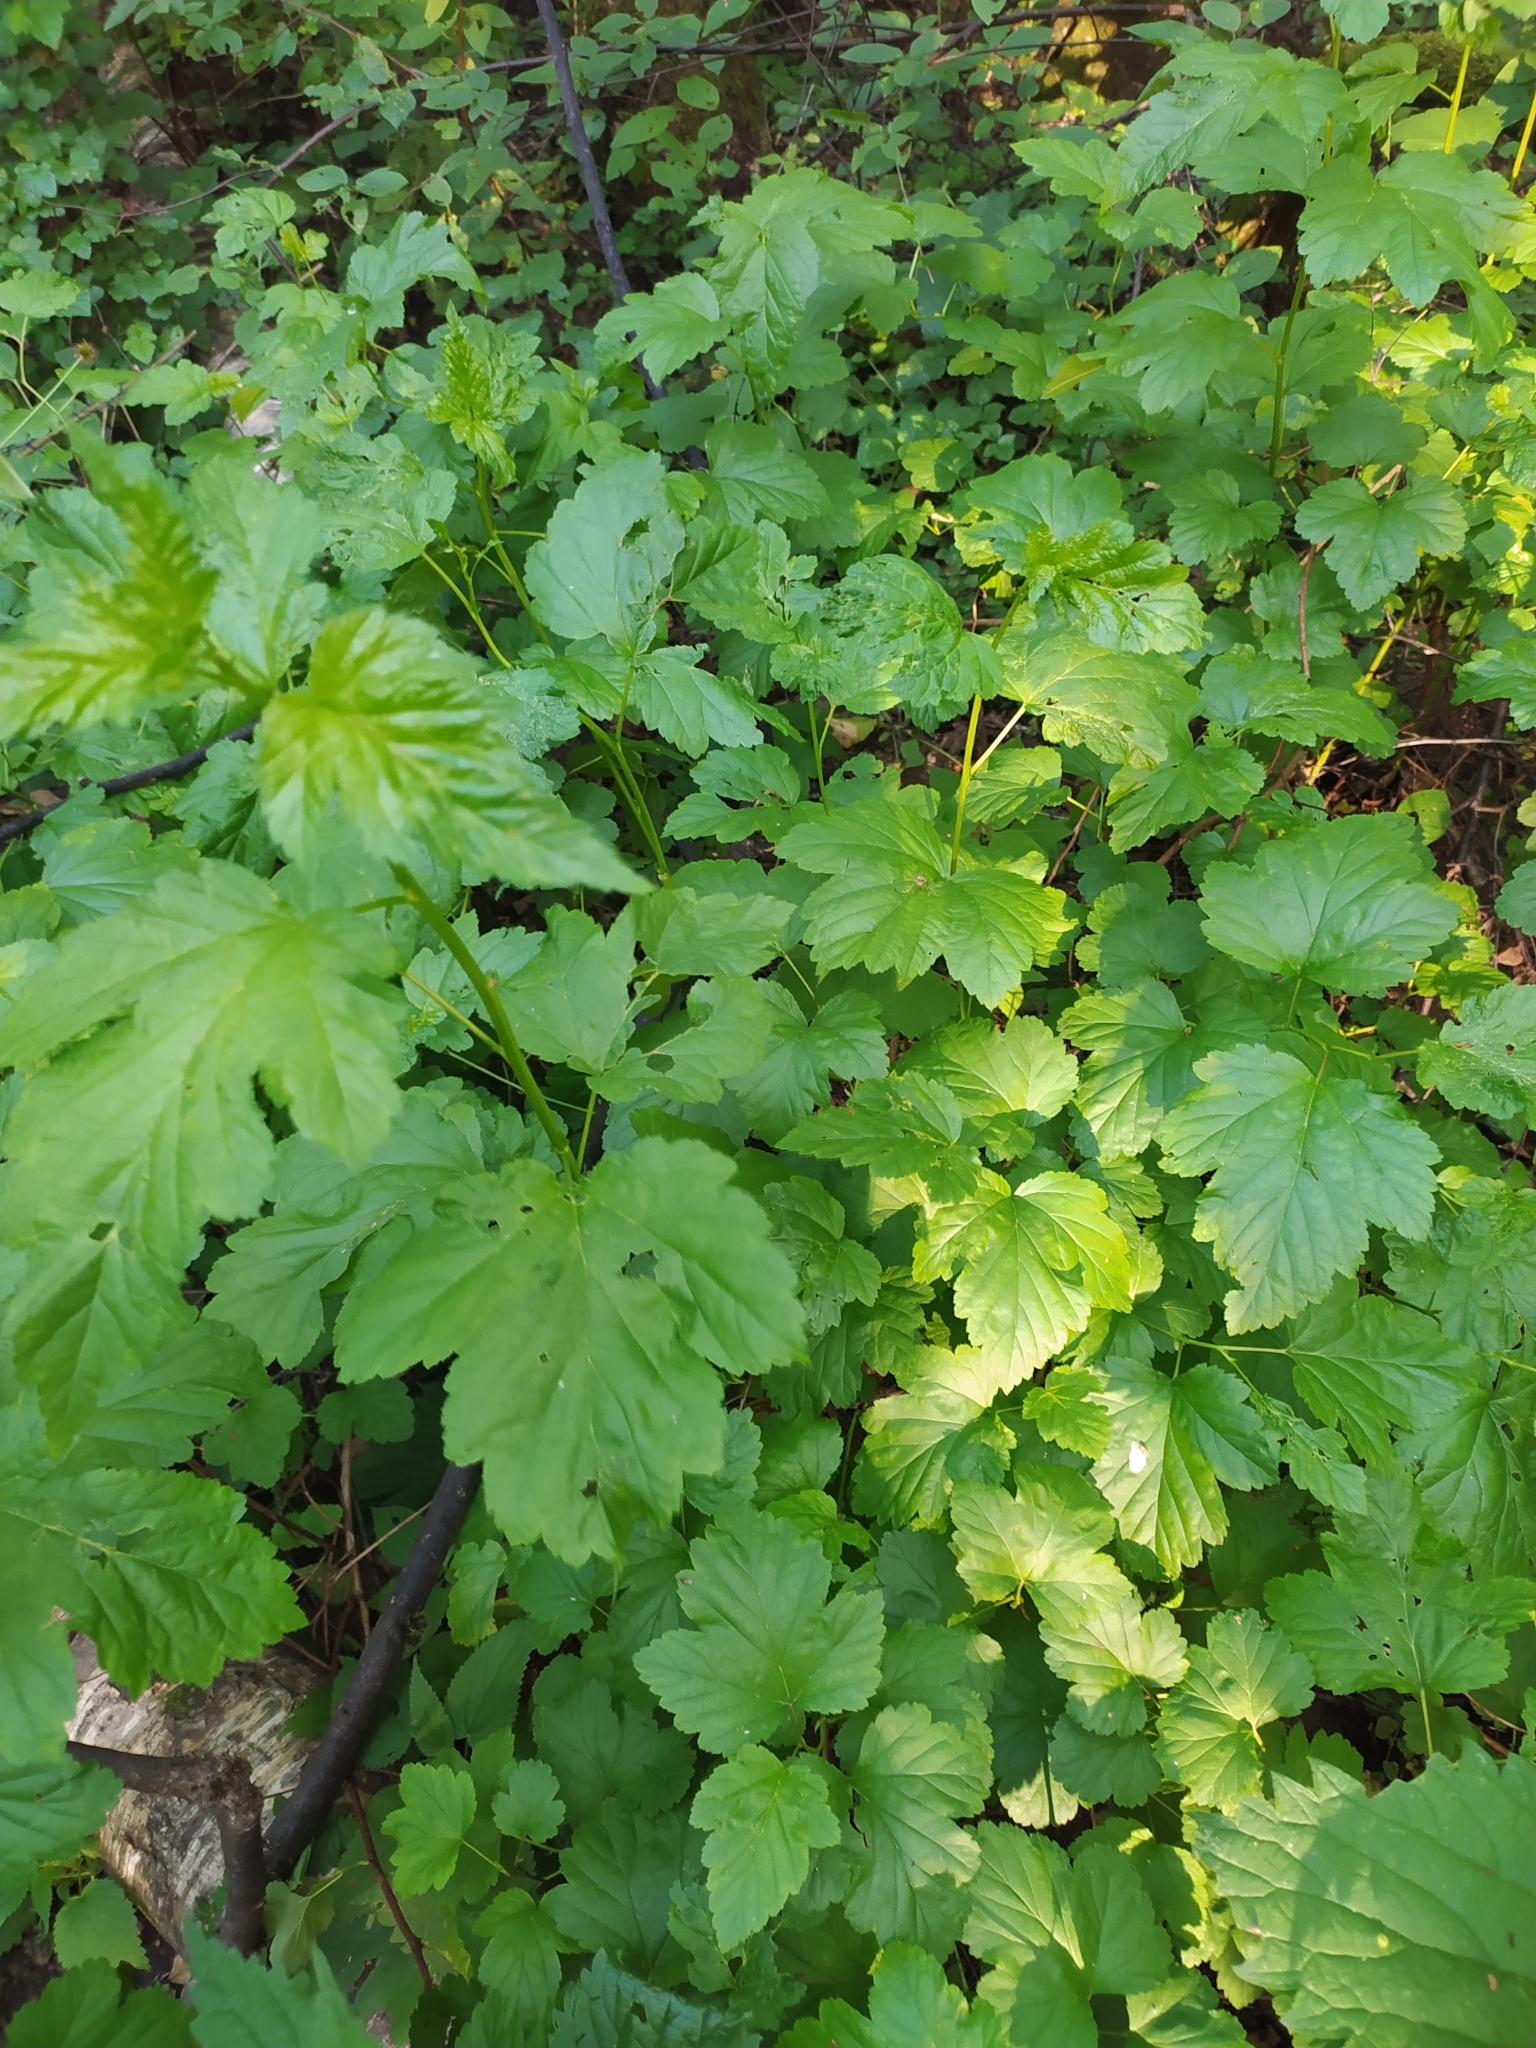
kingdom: Plantae
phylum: Tracheophyta
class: Magnoliopsida
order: Rosales
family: Rosaceae
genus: Physocarpus
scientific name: Physocarpus opulifolius
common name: Ninebark
